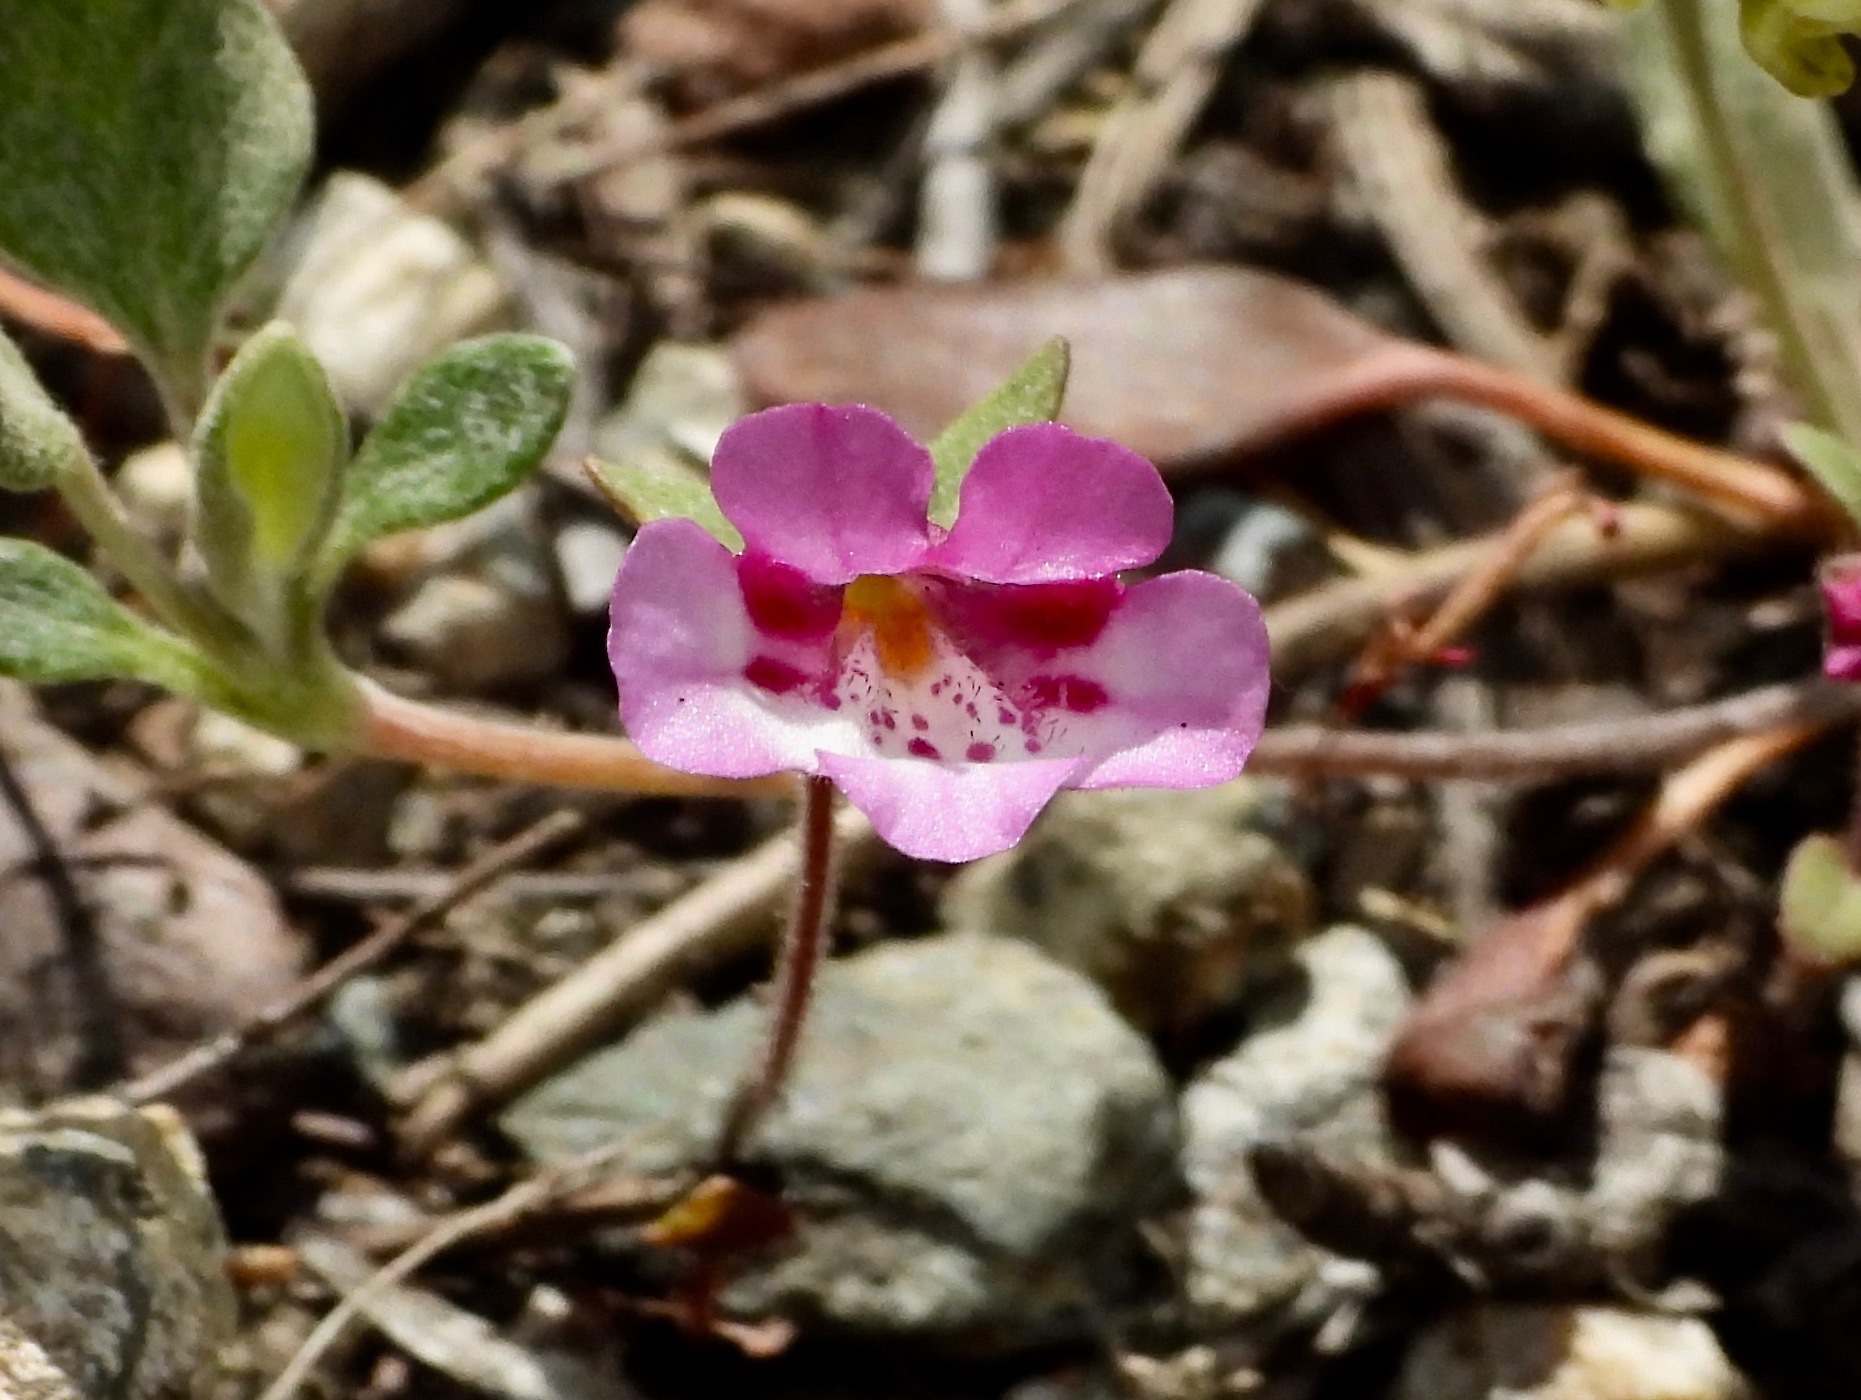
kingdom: Plantae
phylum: Tracheophyta
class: Magnoliopsida
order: Lamiales
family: Phrymaceae
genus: Diplacus
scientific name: Diplacus layneae
